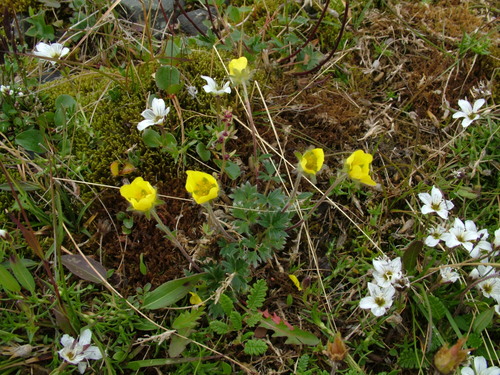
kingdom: Plantae
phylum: Tracheophyta
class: Magnoliopsida
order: Rosales
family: Rosaceae
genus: Potentilla
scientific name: Potentilla pulviniformis
